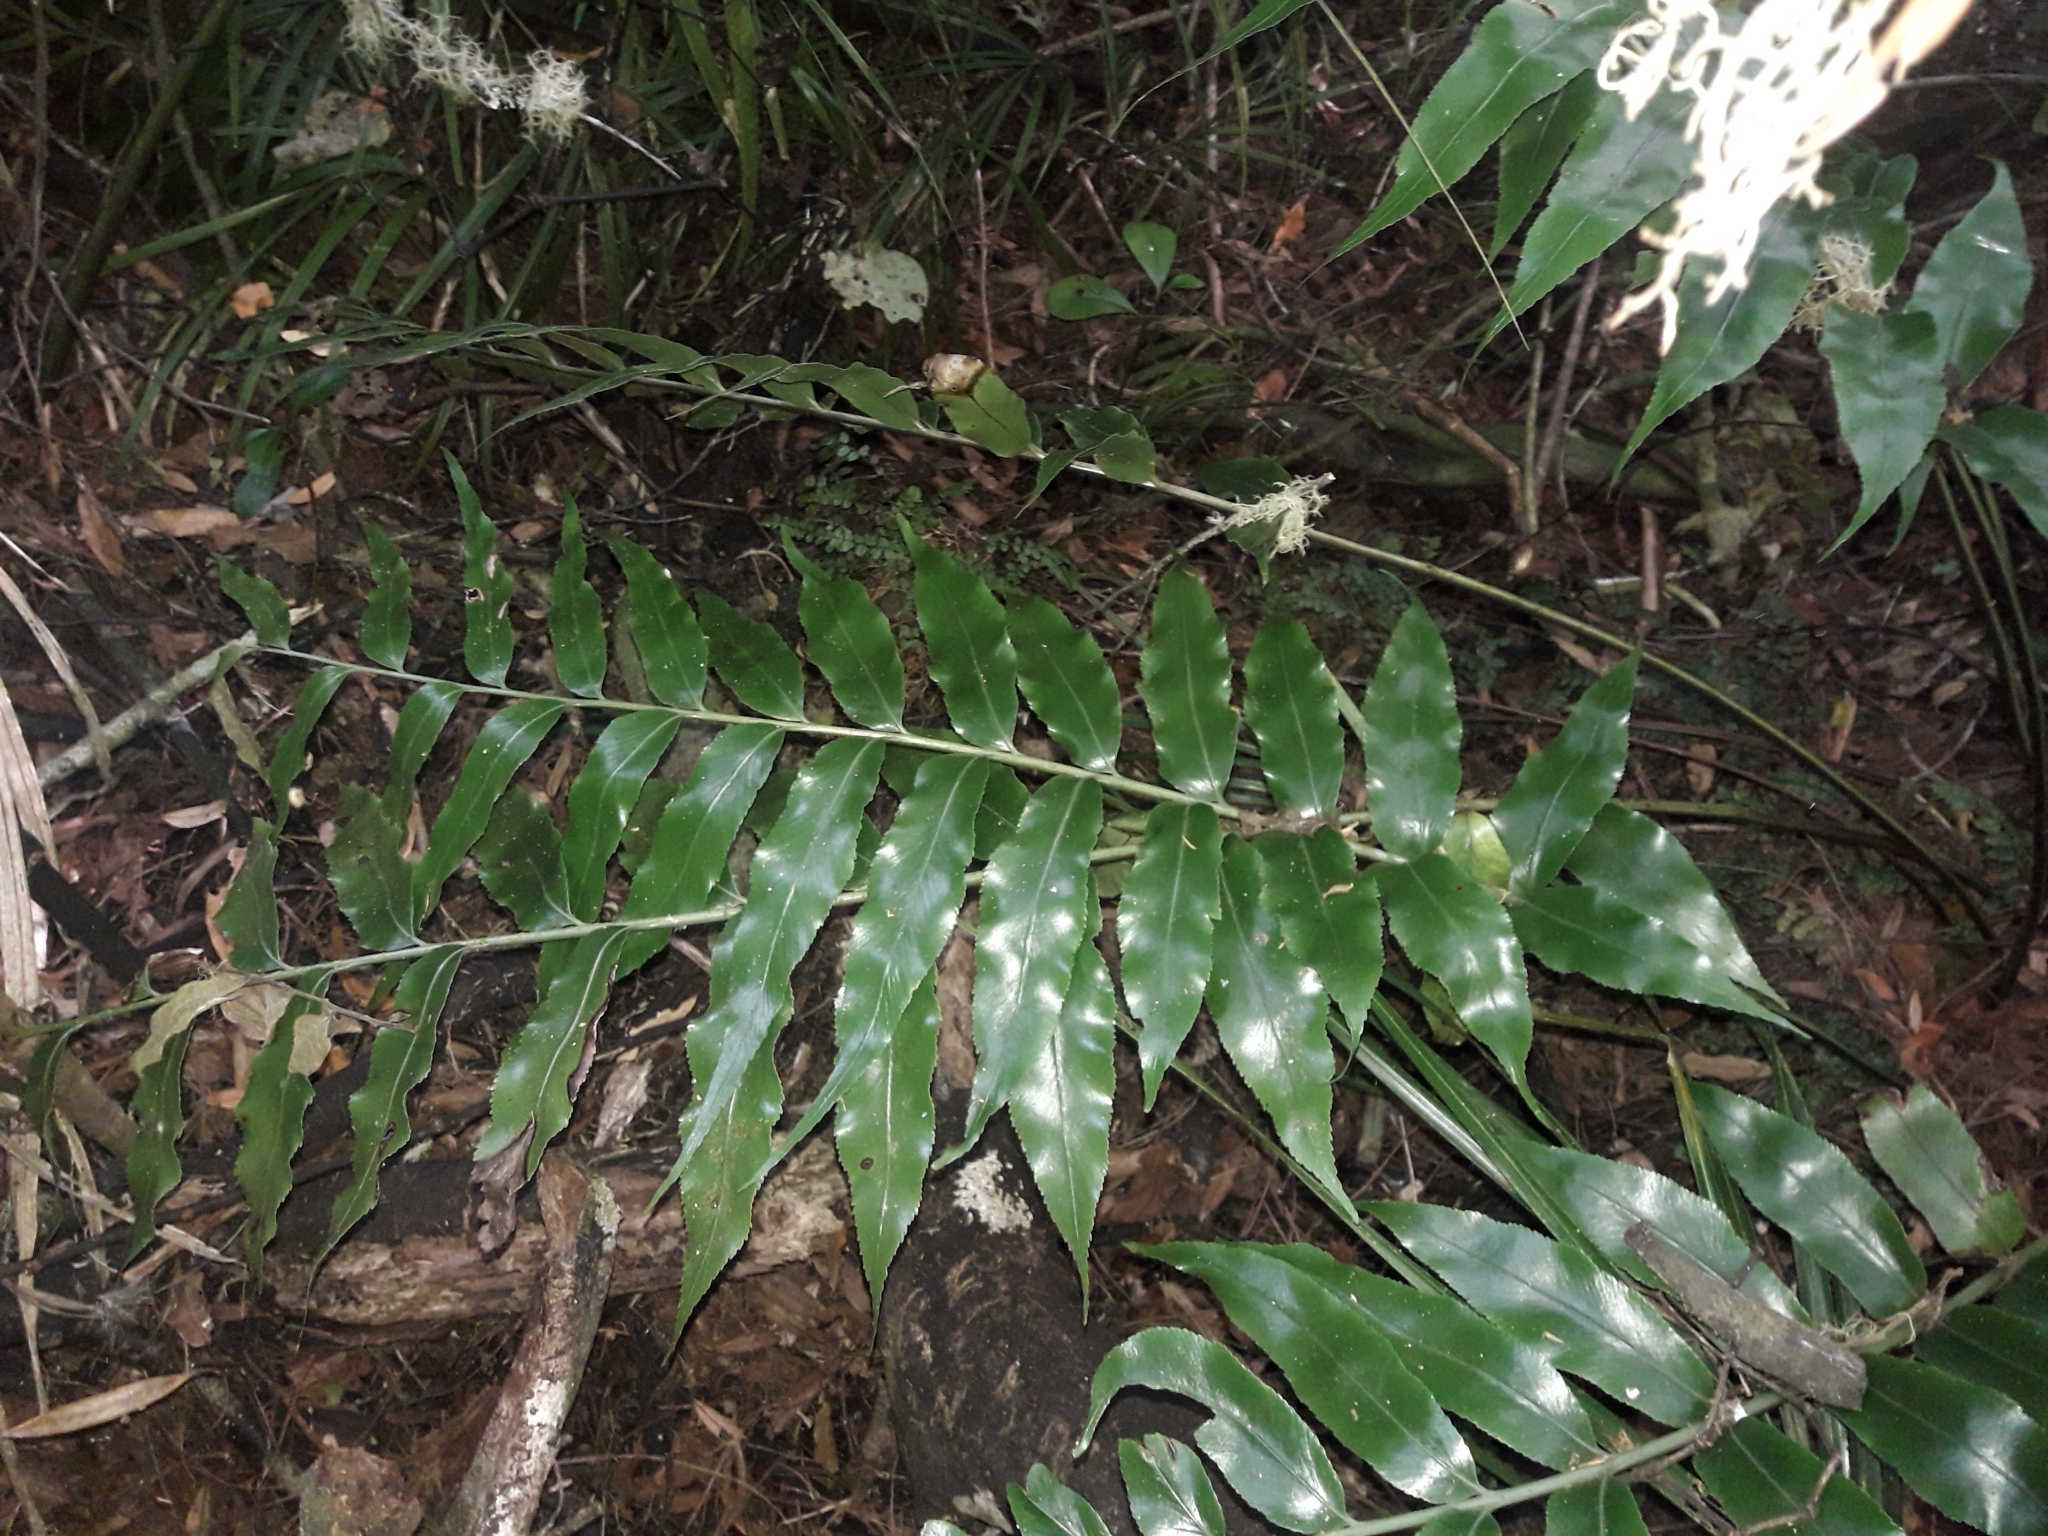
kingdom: Plantae
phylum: Tracheophyta
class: Polypodiopsida
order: Polypodiales
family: Aspleniaceae
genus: Asplenium
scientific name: Asplenium oblongifolium
